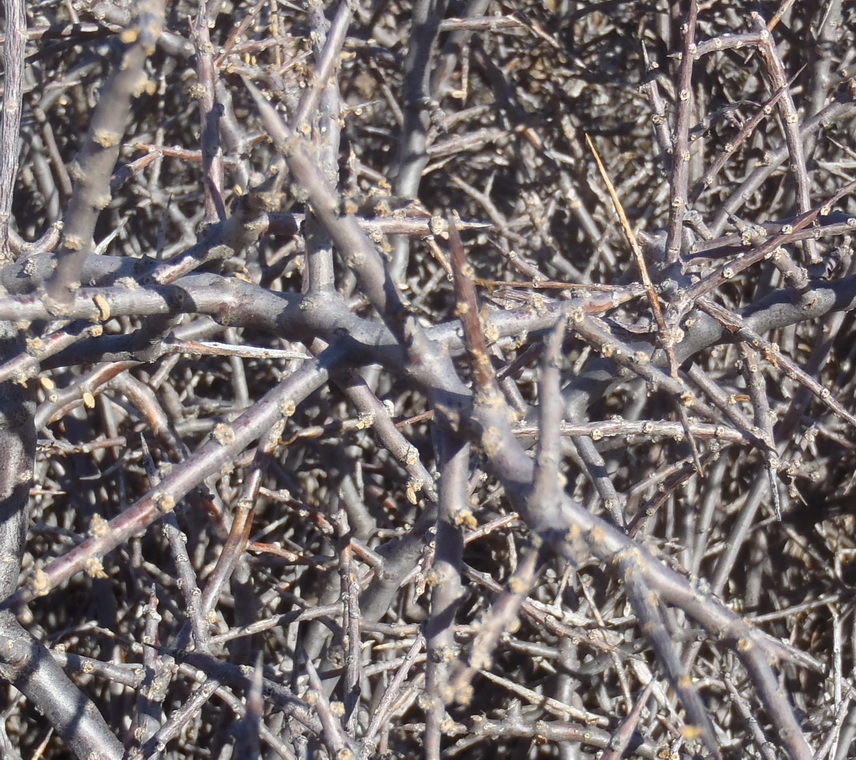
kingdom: Plantae
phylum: Tracheophyta
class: Magnoliopsida
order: Brassicales
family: Capparaceae
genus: Cadaba
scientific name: Cadaba aphylla
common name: Black storm
